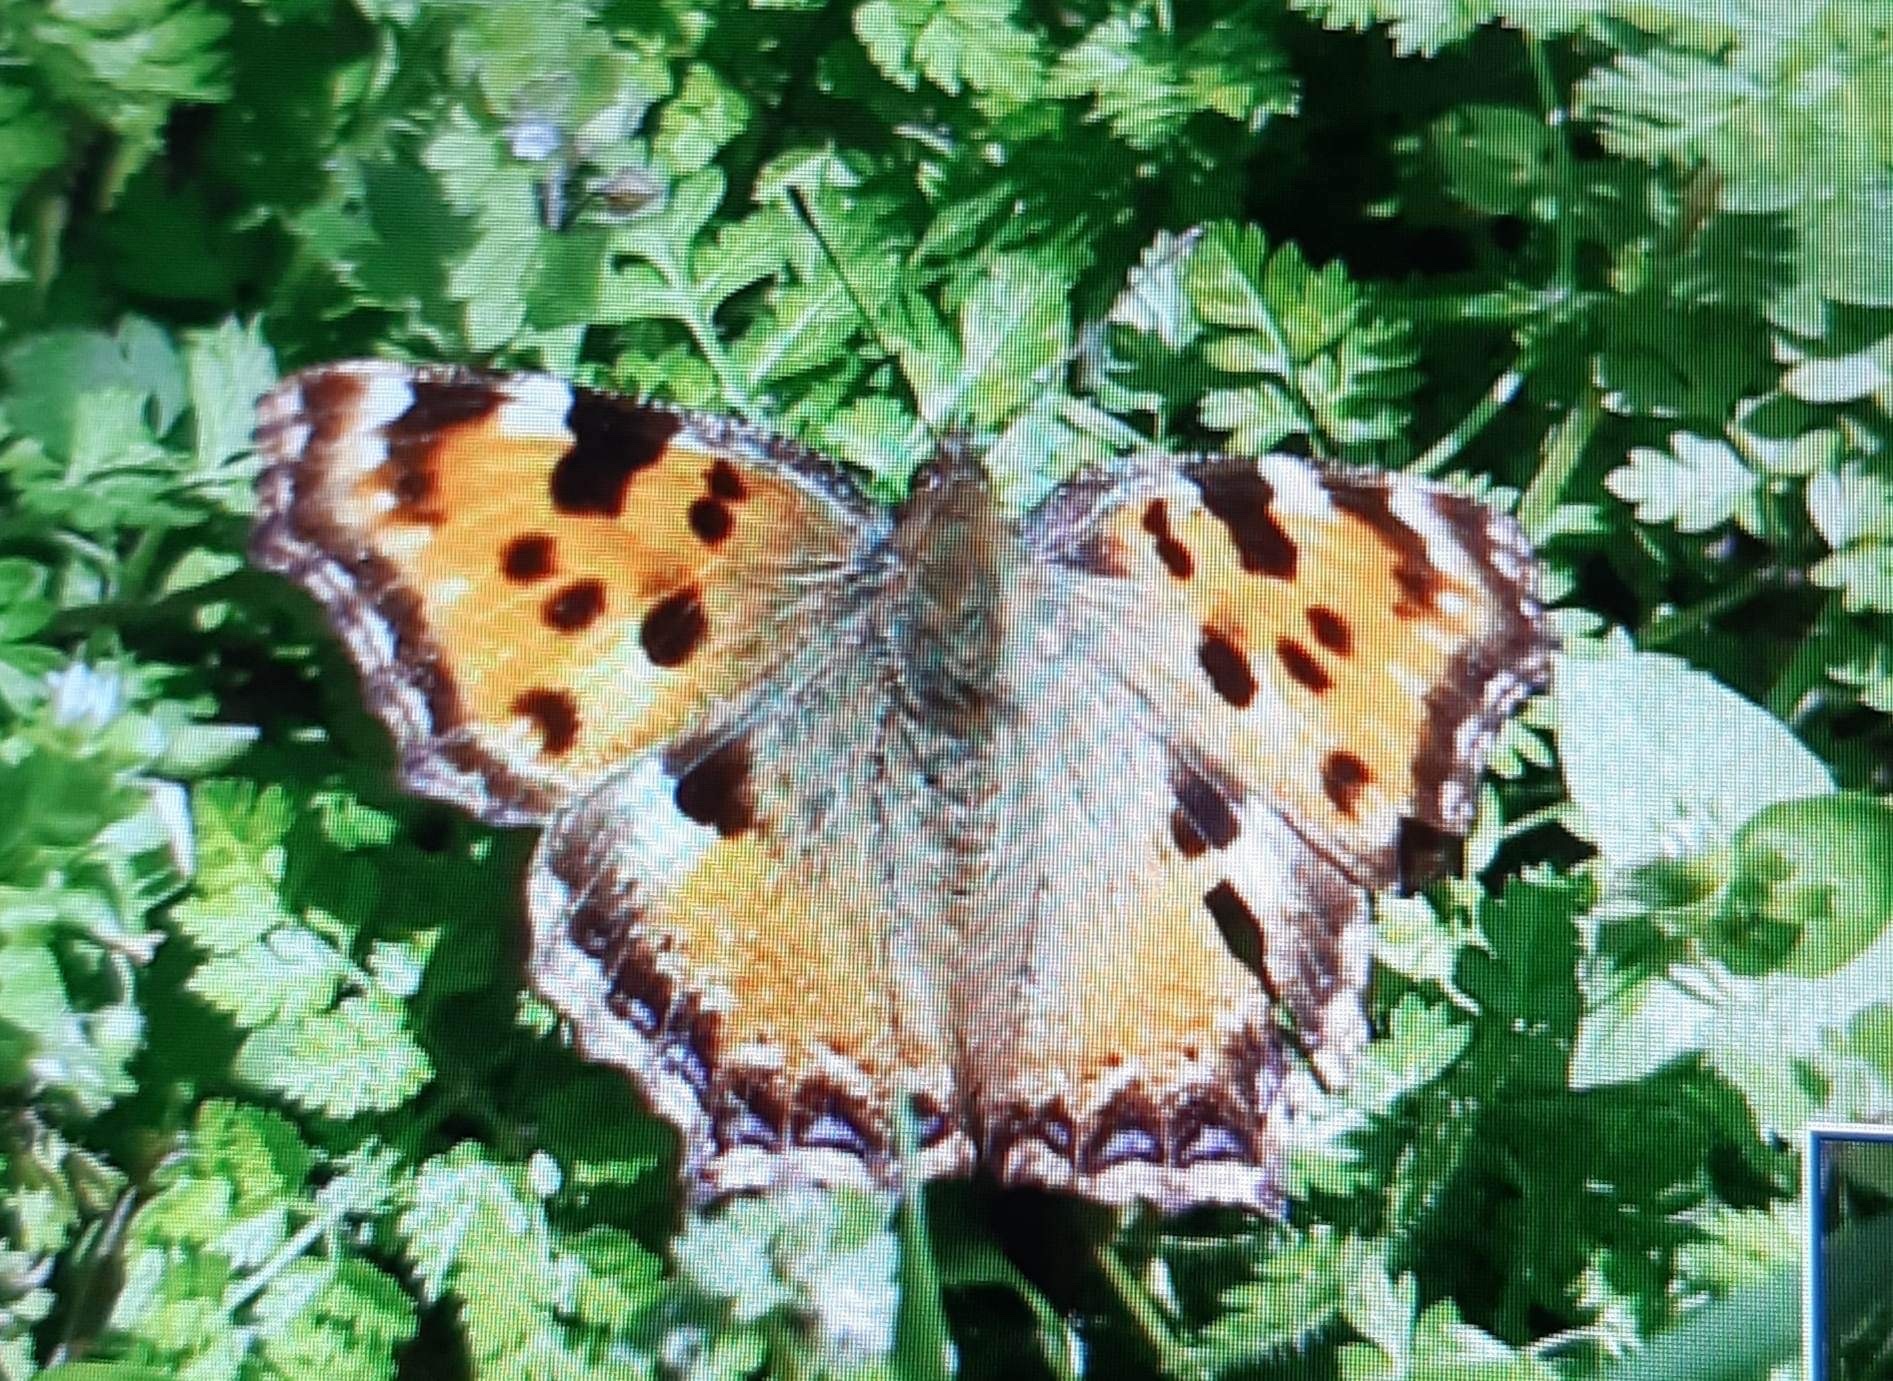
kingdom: Animalia
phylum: Arthropoda
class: Insecta
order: Lepidoptera
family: Nymphalidae
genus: Nymphalis
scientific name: Nymphalis polychloros
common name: Large tortoiseshell
